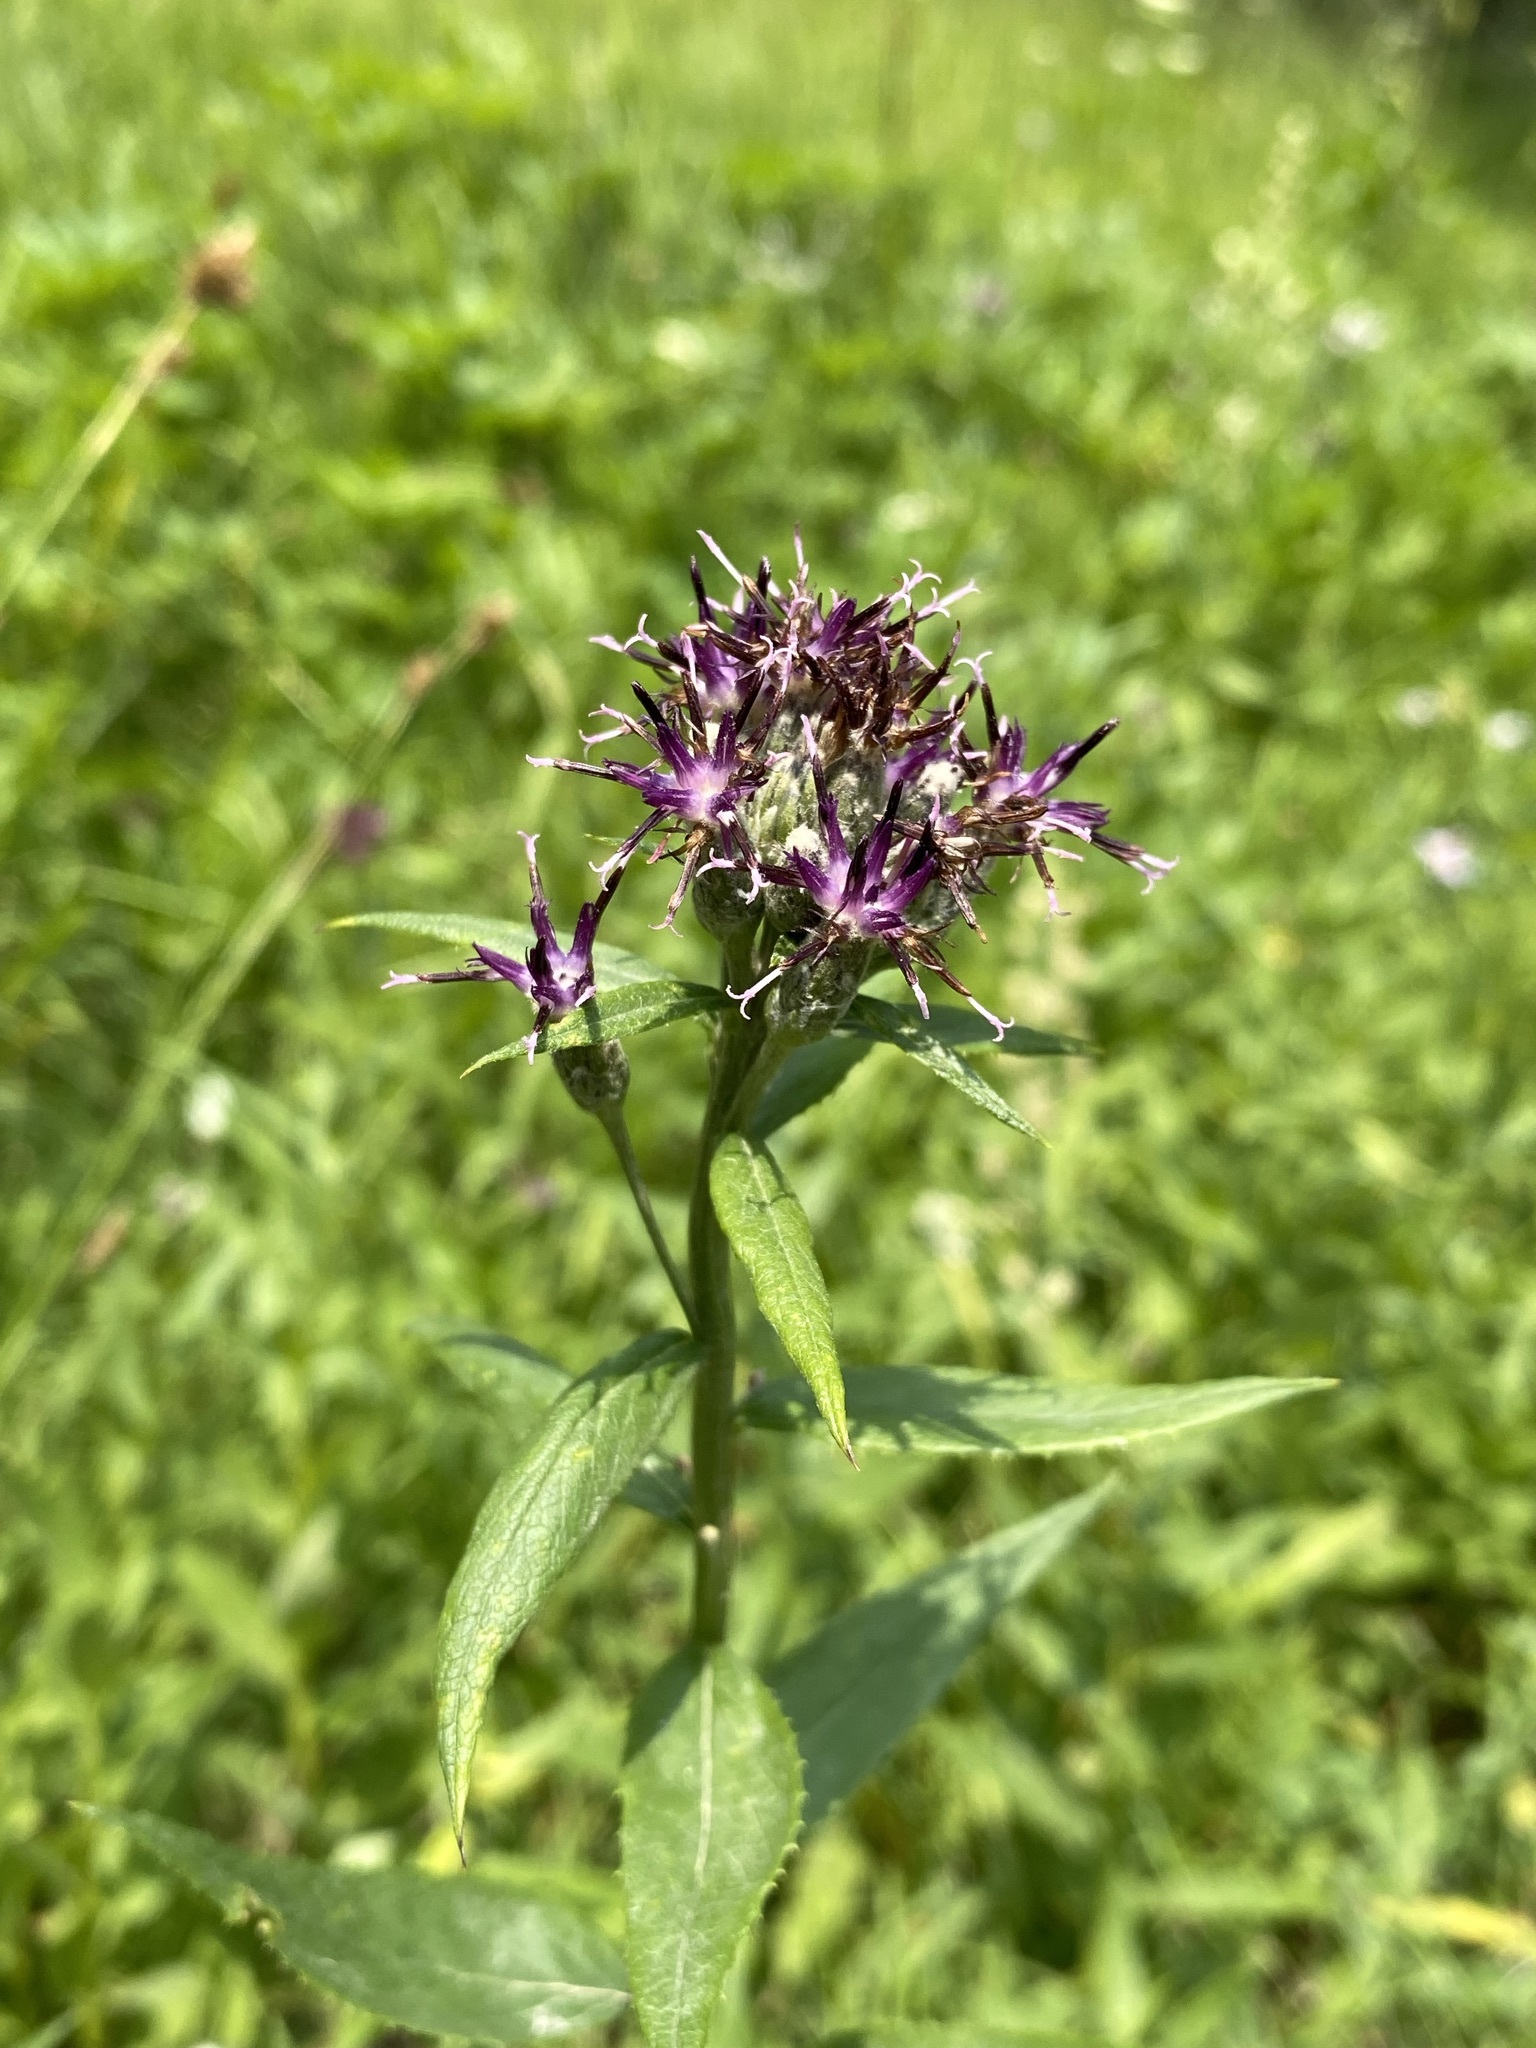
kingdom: Plantae
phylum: Tracheophyta
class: Magnoliopsida
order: Asterales
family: Asteraceae
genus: Saussurea
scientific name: Saussurea americana
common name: American saw-wort
